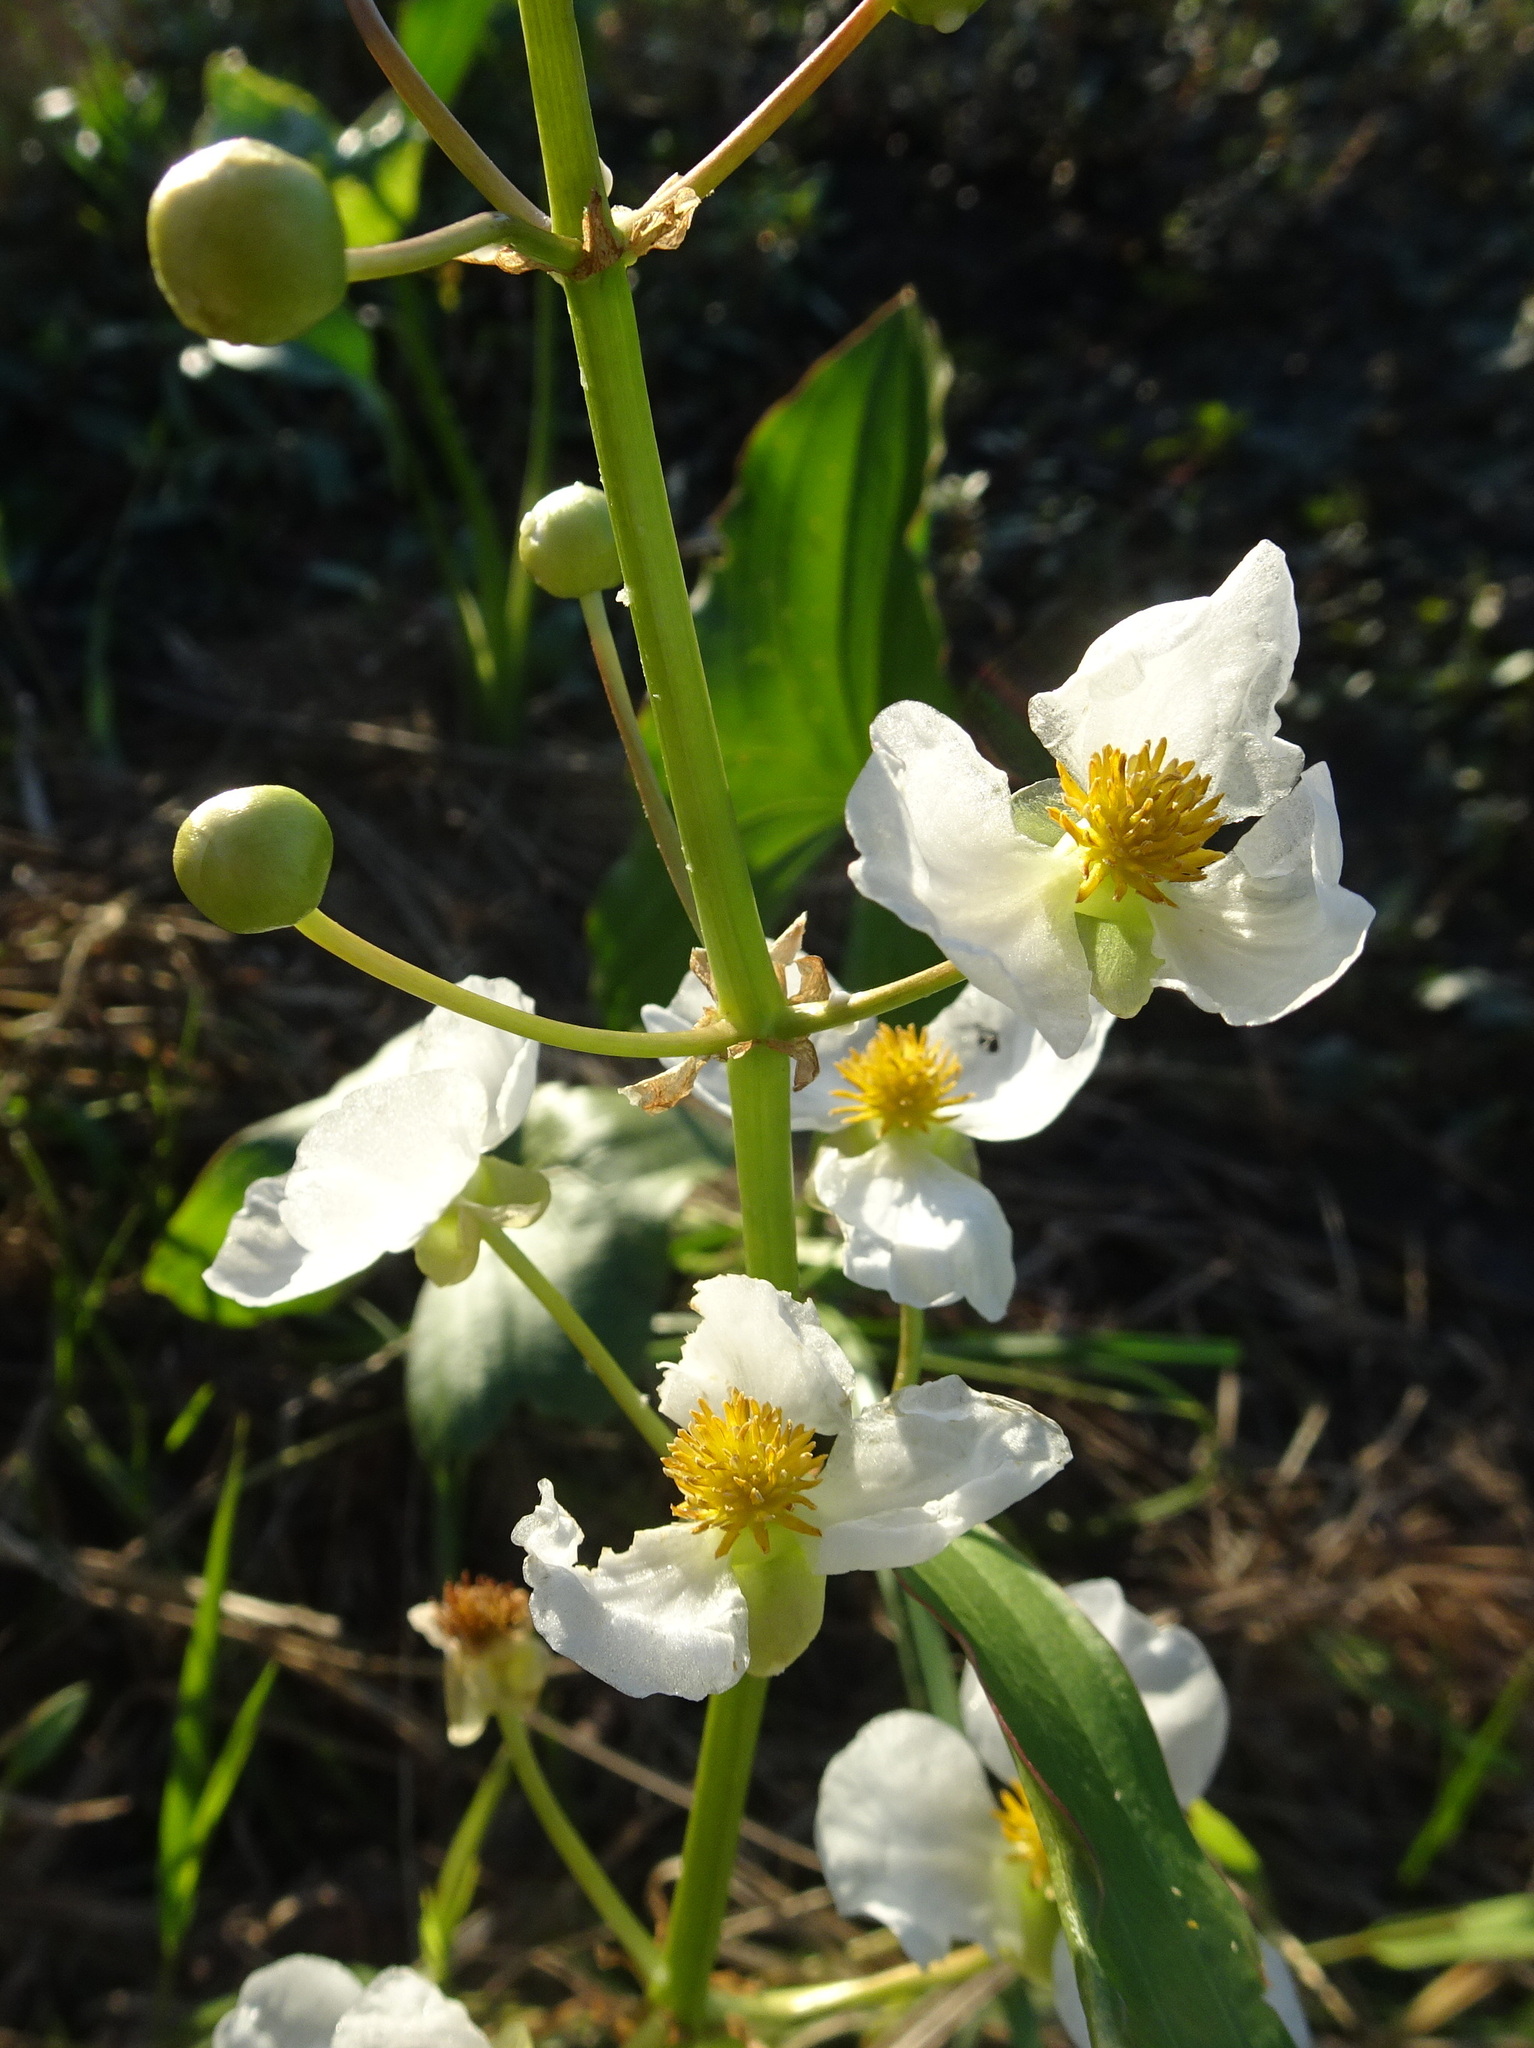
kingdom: Plantae
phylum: Tracheophyta
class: Liliopsida
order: Alismatales
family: Alismataceae
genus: Sagittaria
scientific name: Sagittaria latifolia
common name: Duck-potato
